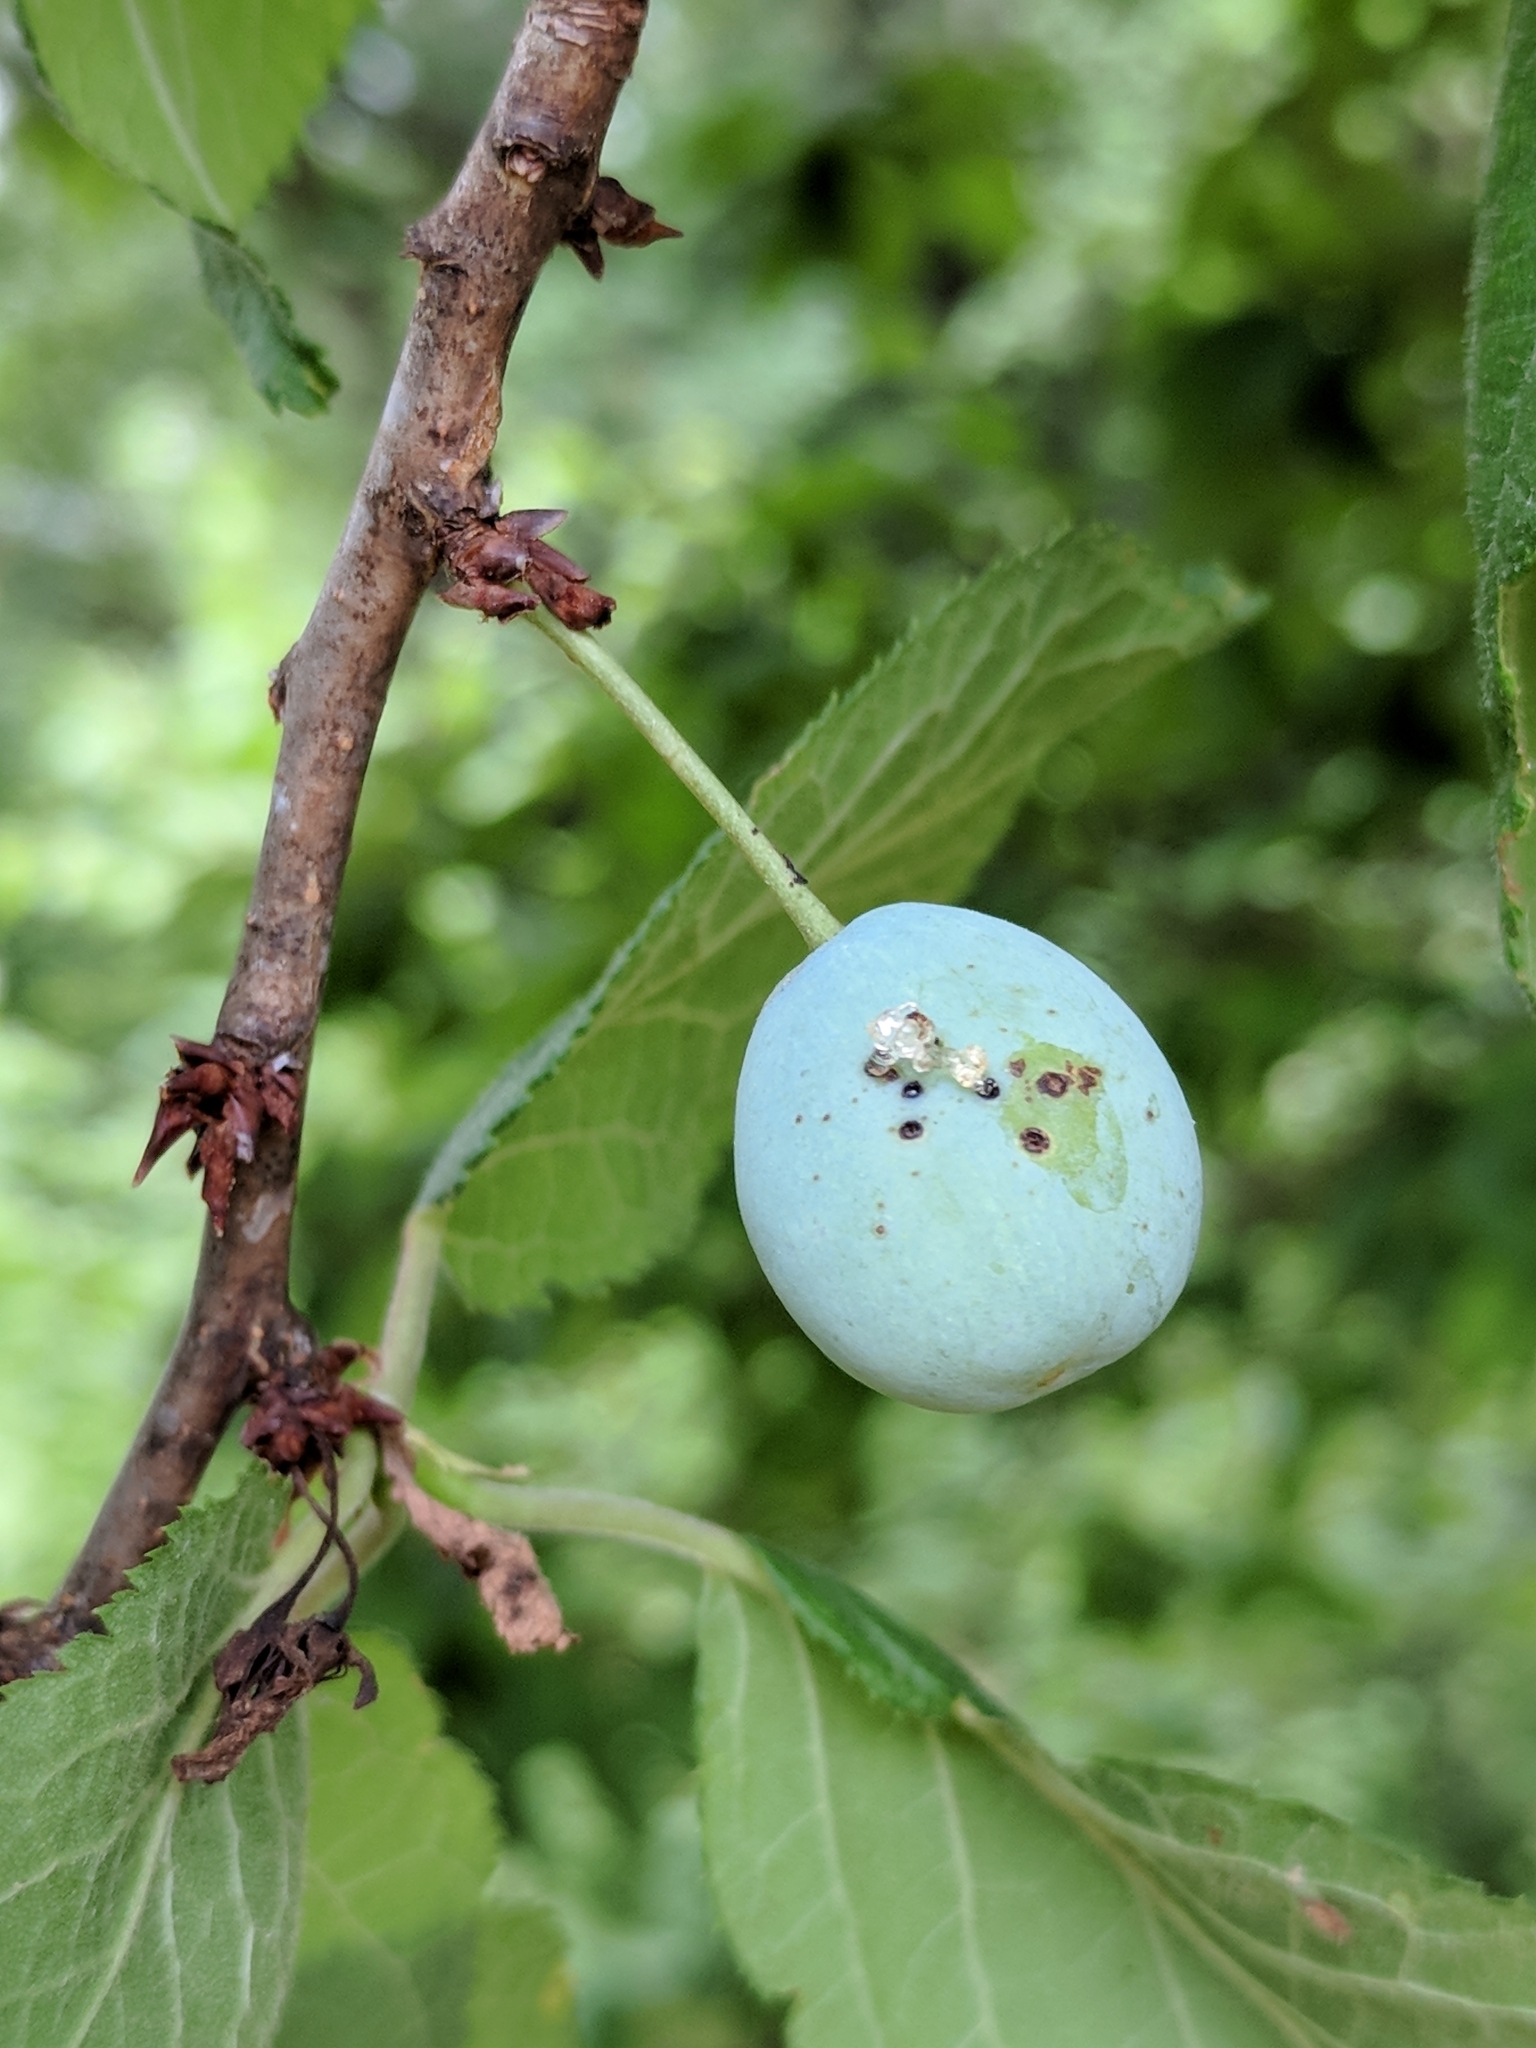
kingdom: Plantae
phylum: Tracheophyta
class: Magnoliopsida
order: Rosales
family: Rosaceae
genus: Prunus
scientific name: Prunus mexicana
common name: Mexican plum
